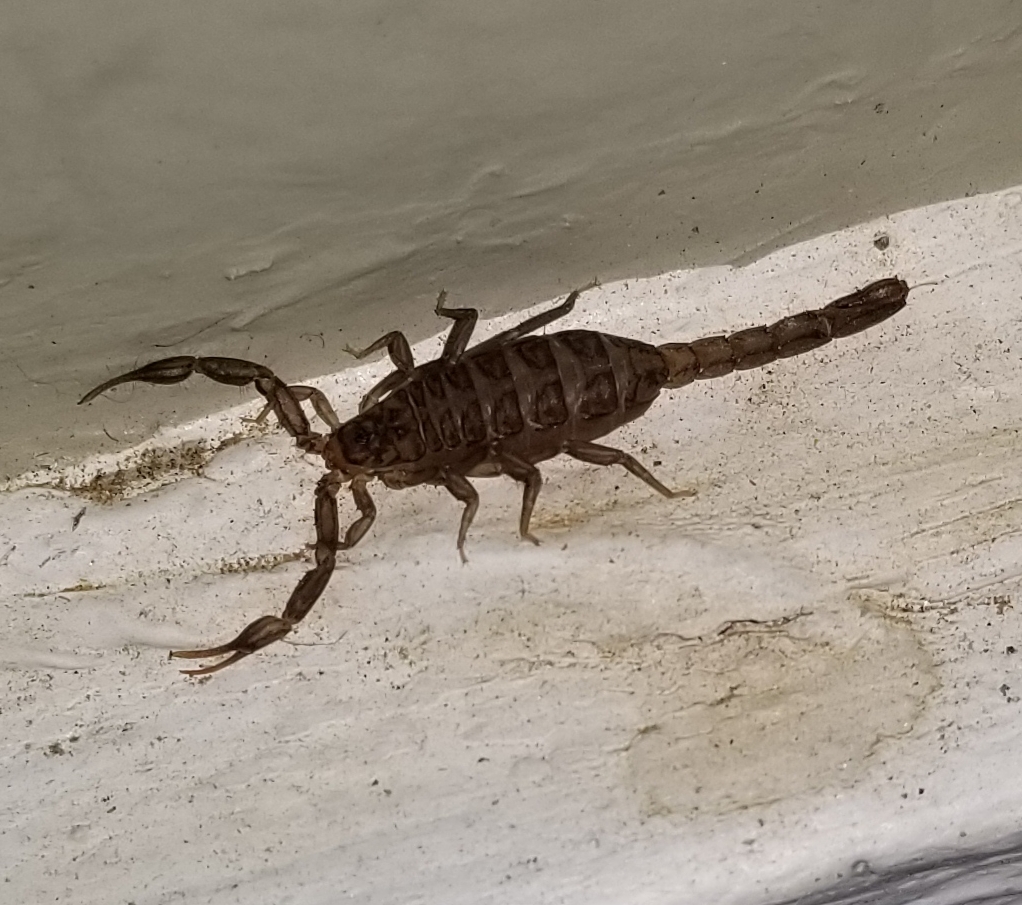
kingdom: Animalia
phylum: Arthropoda
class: Arachnida
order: Scorpiones
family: Vaejovidae
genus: Serradigitus
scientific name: Serradigitus gertschi
